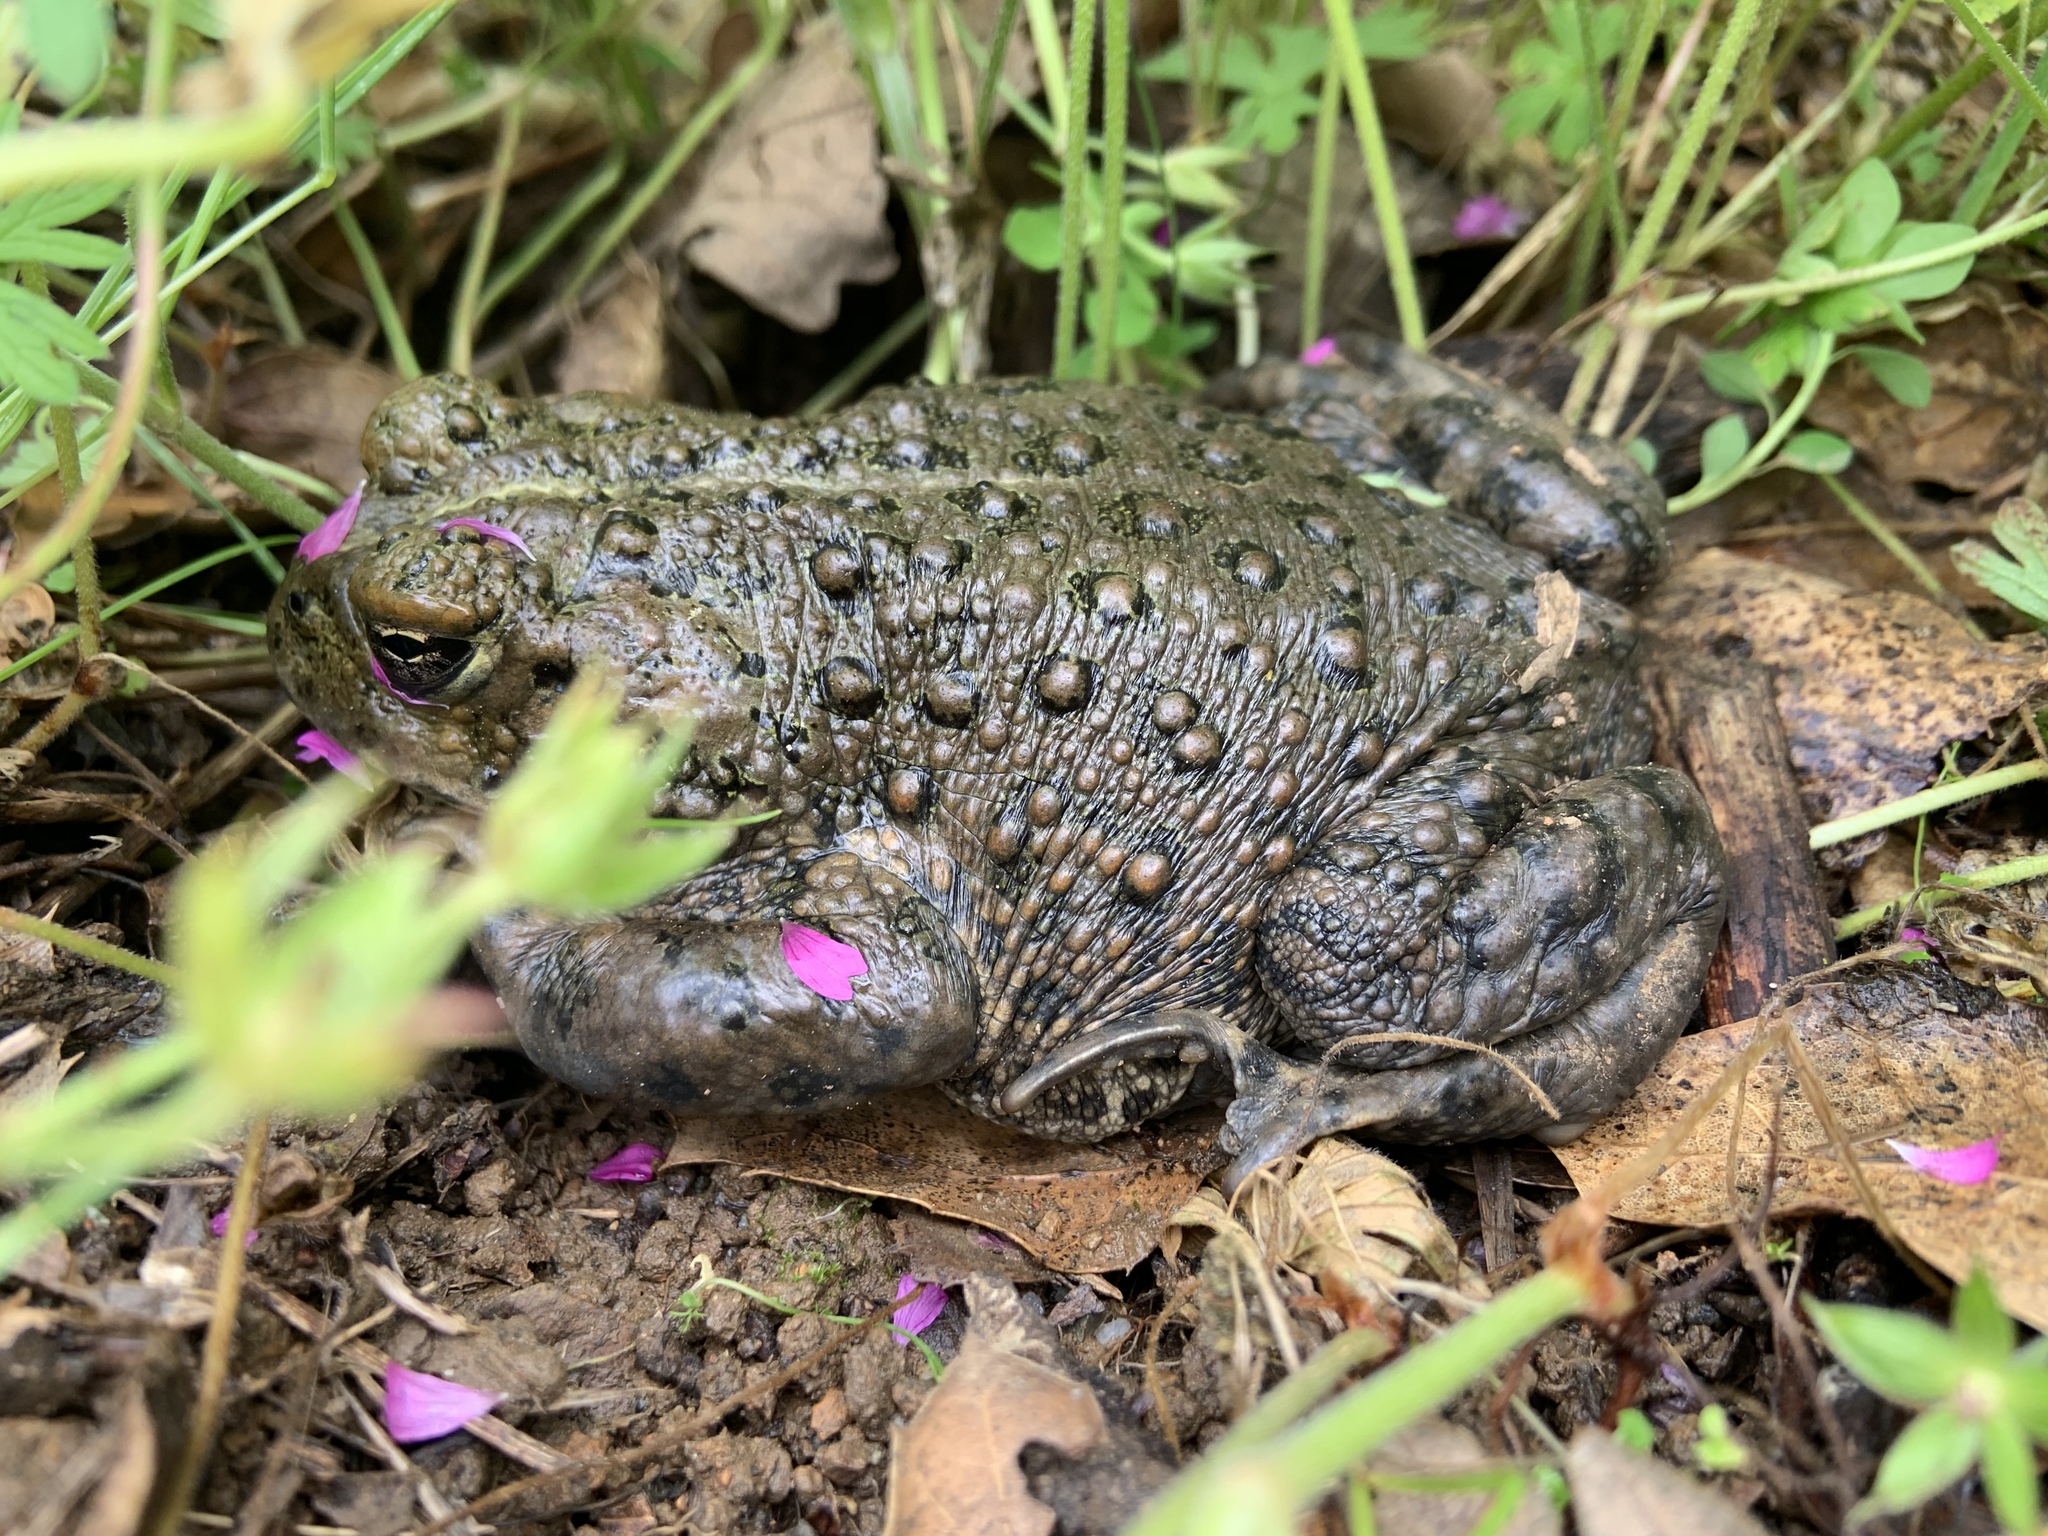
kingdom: Animalia
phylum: Chordata
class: Amphibia
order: Anura
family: Bufonidae
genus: Anaxyrus
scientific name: Anaxyrus boreas
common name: Western toad
